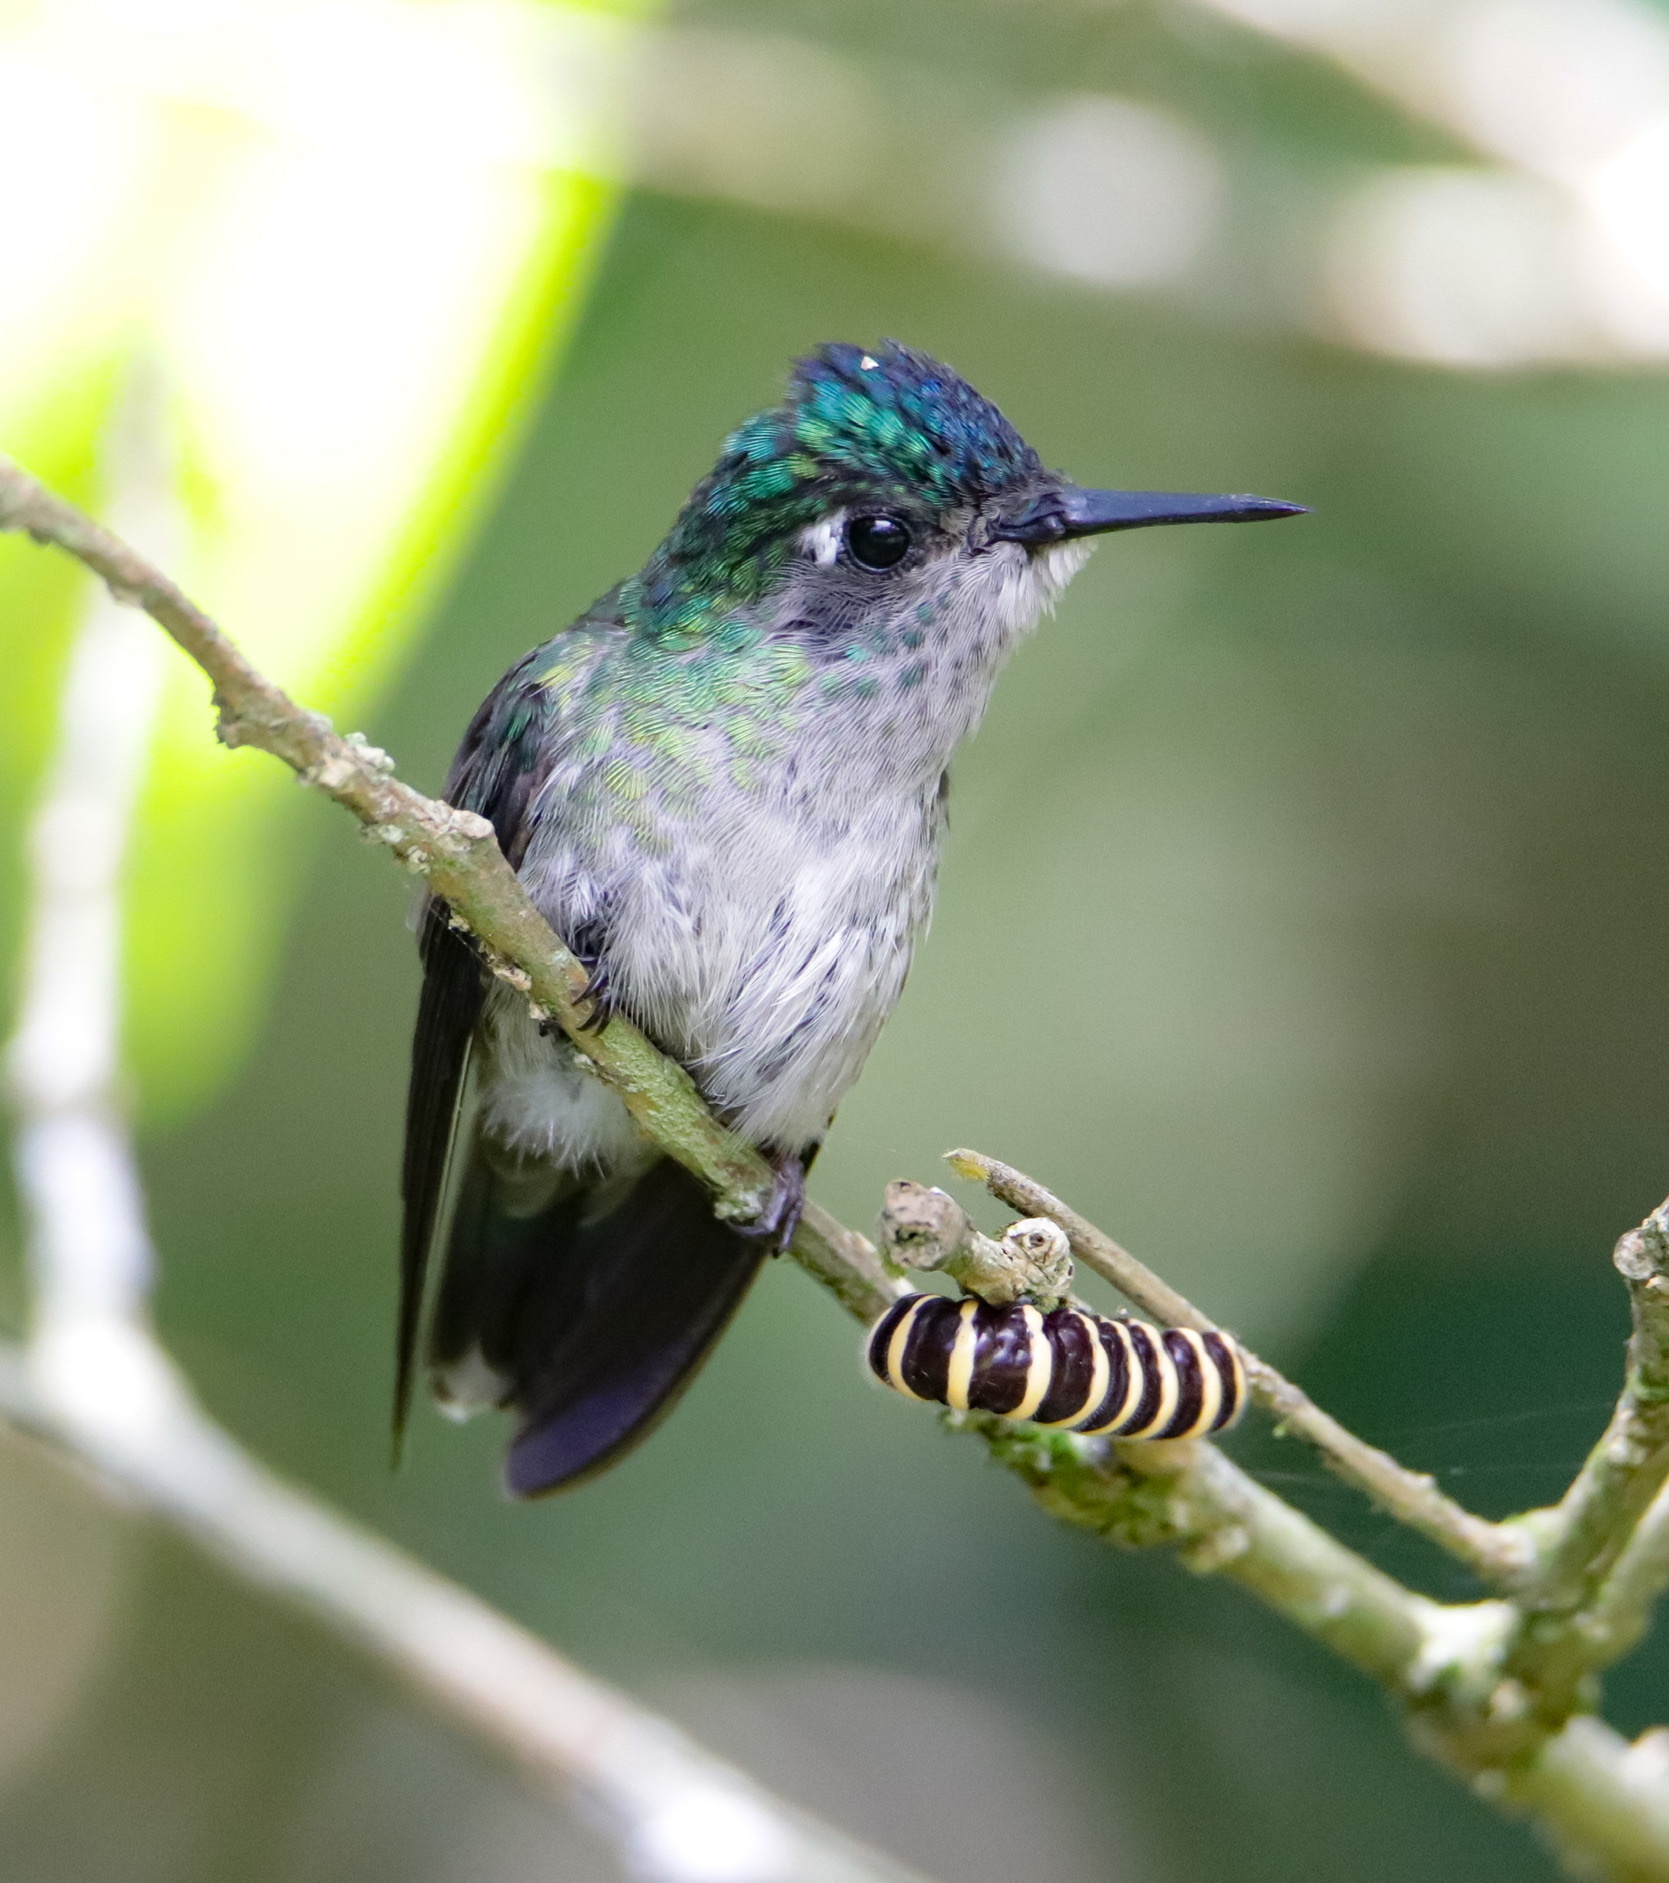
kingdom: Animalia
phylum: Chordata
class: Aves
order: Apodiformes
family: Trochilidae
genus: Klais
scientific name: Klais guimeti
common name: Violet-headed hummingbird
